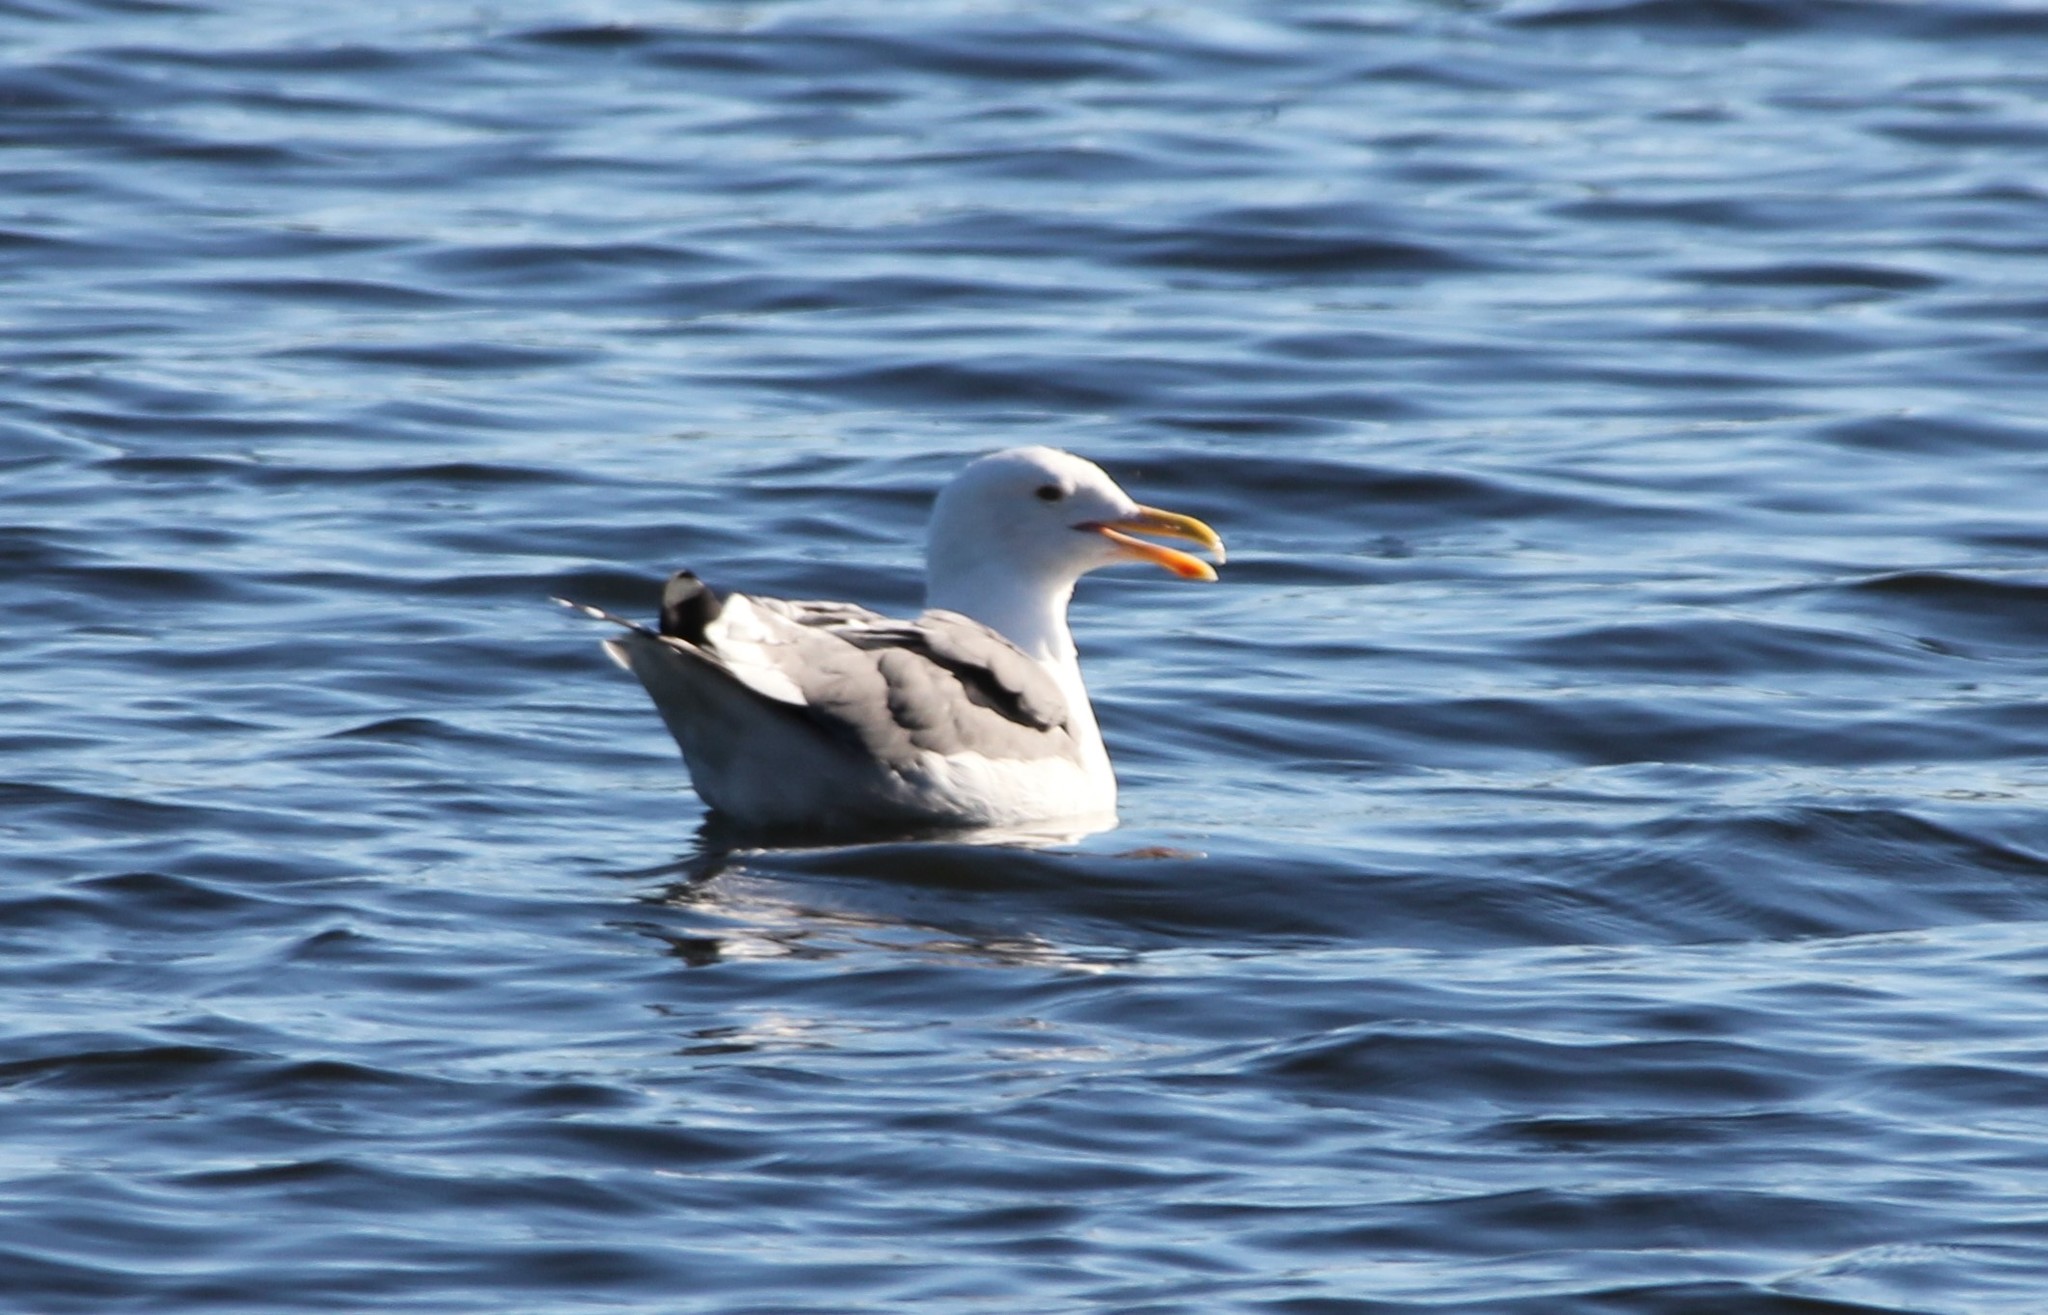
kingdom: Animalia
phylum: Chordata
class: Aves
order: Charadriiformes
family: Laridae
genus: Larus
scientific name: Larus occidentalis
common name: Western gull
